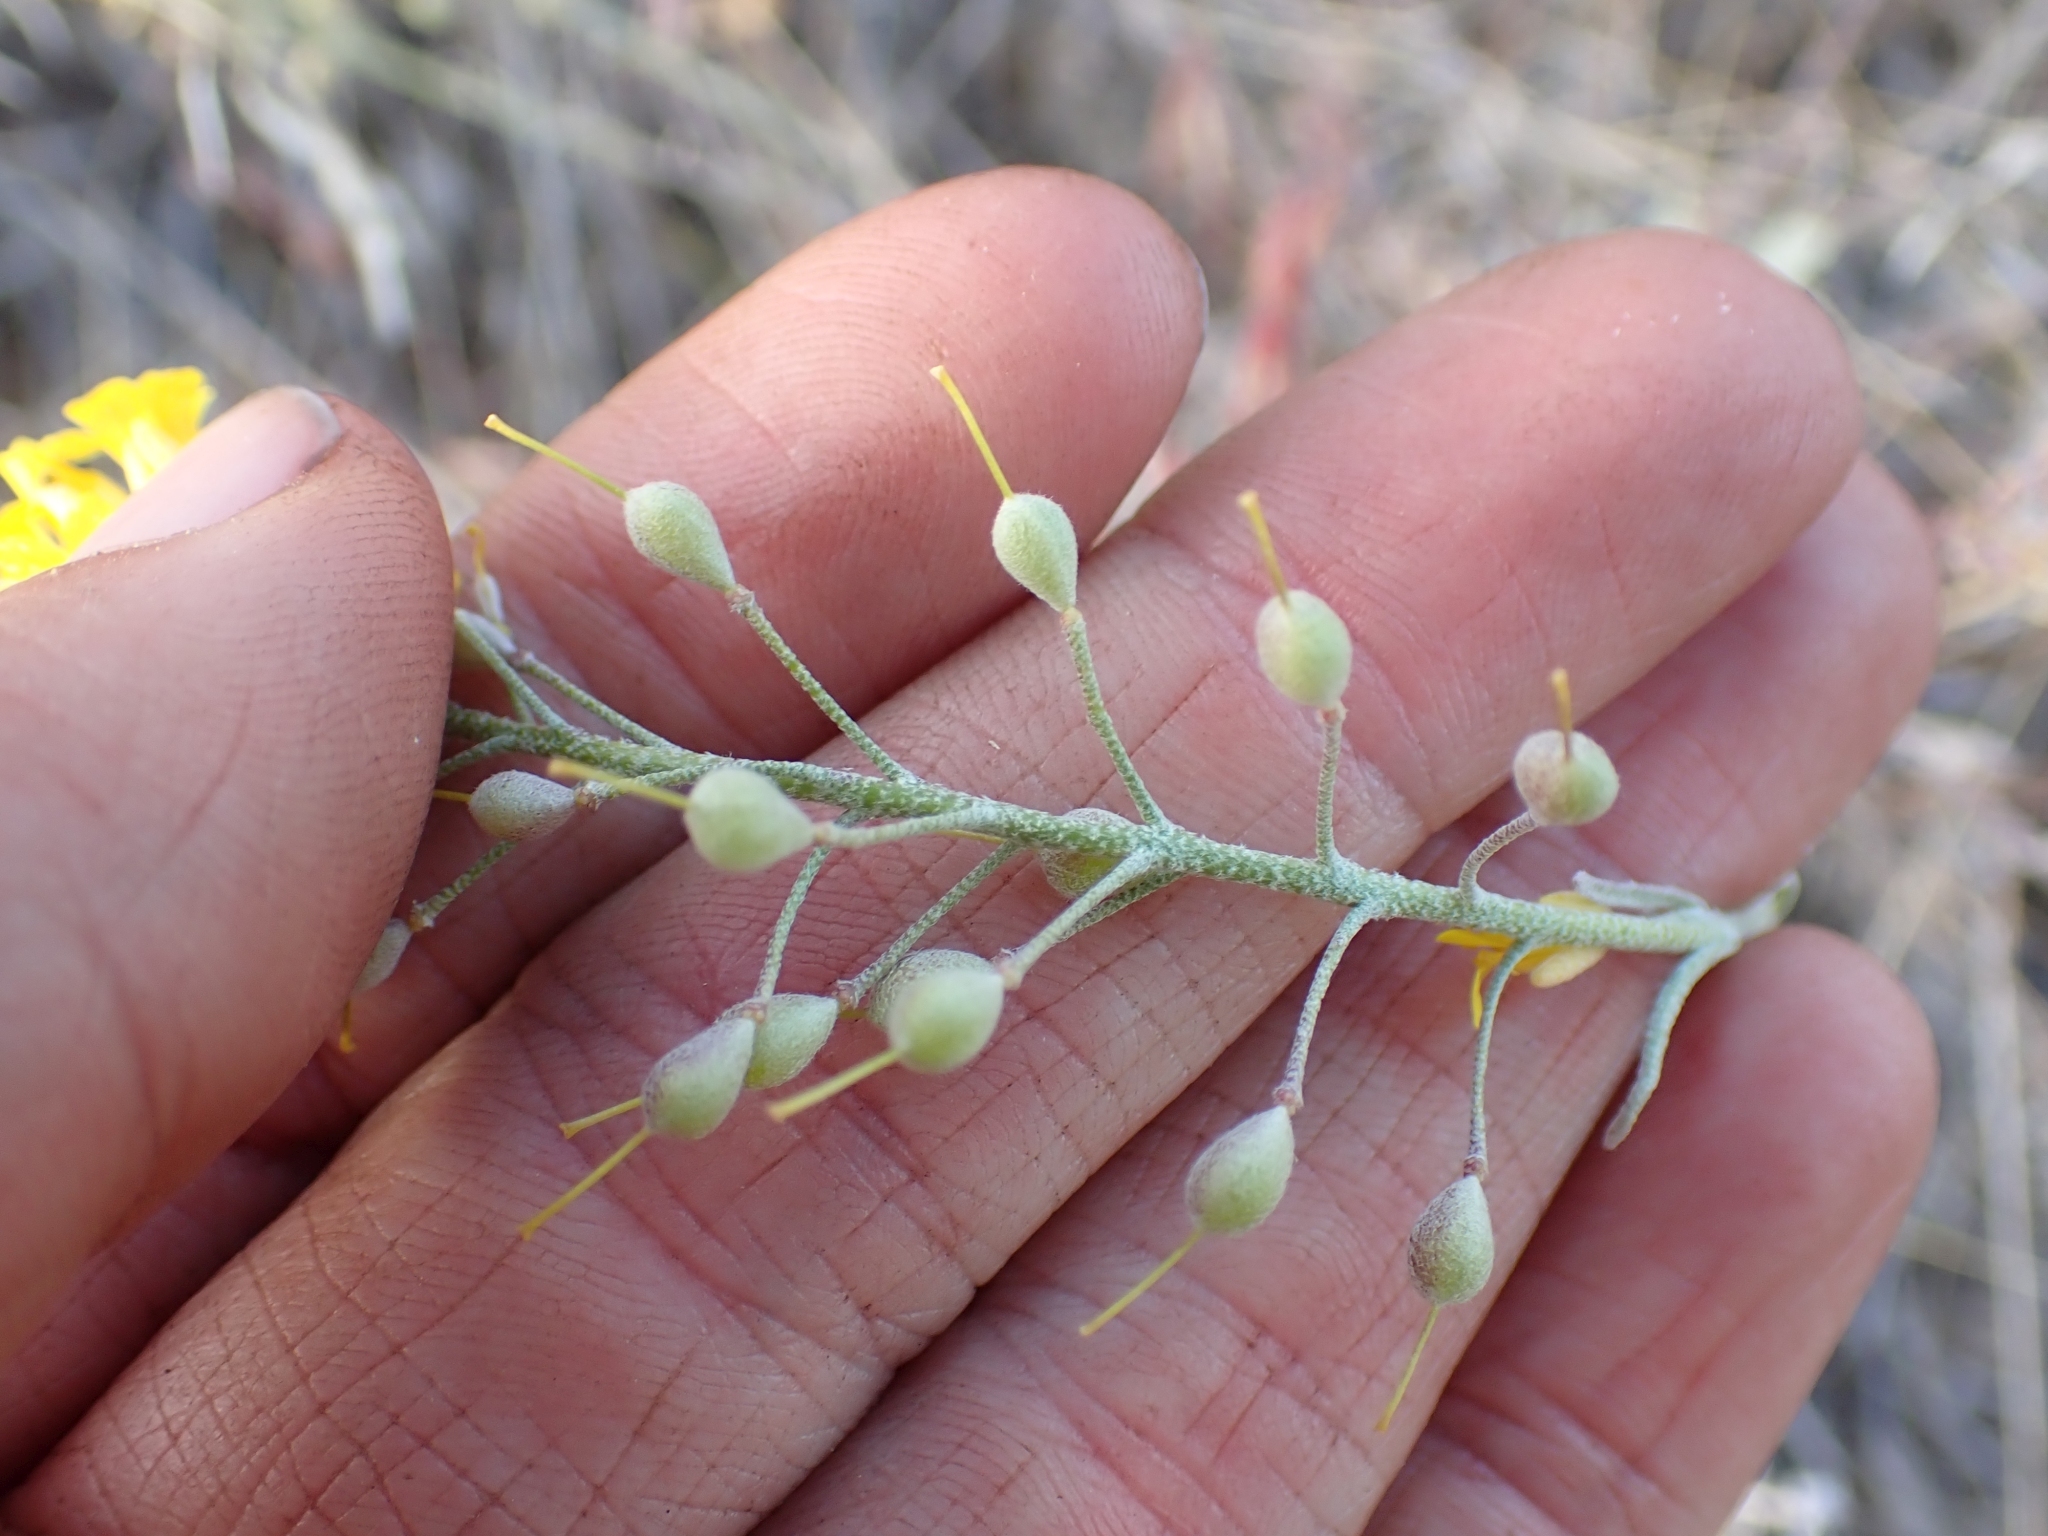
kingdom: Plantae
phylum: Tracheophyta
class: Magnoliopsida
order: Brassicales
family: Brassicaceae
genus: Physaria
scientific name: Physaria douglasii
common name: Douglas's bladderpod
